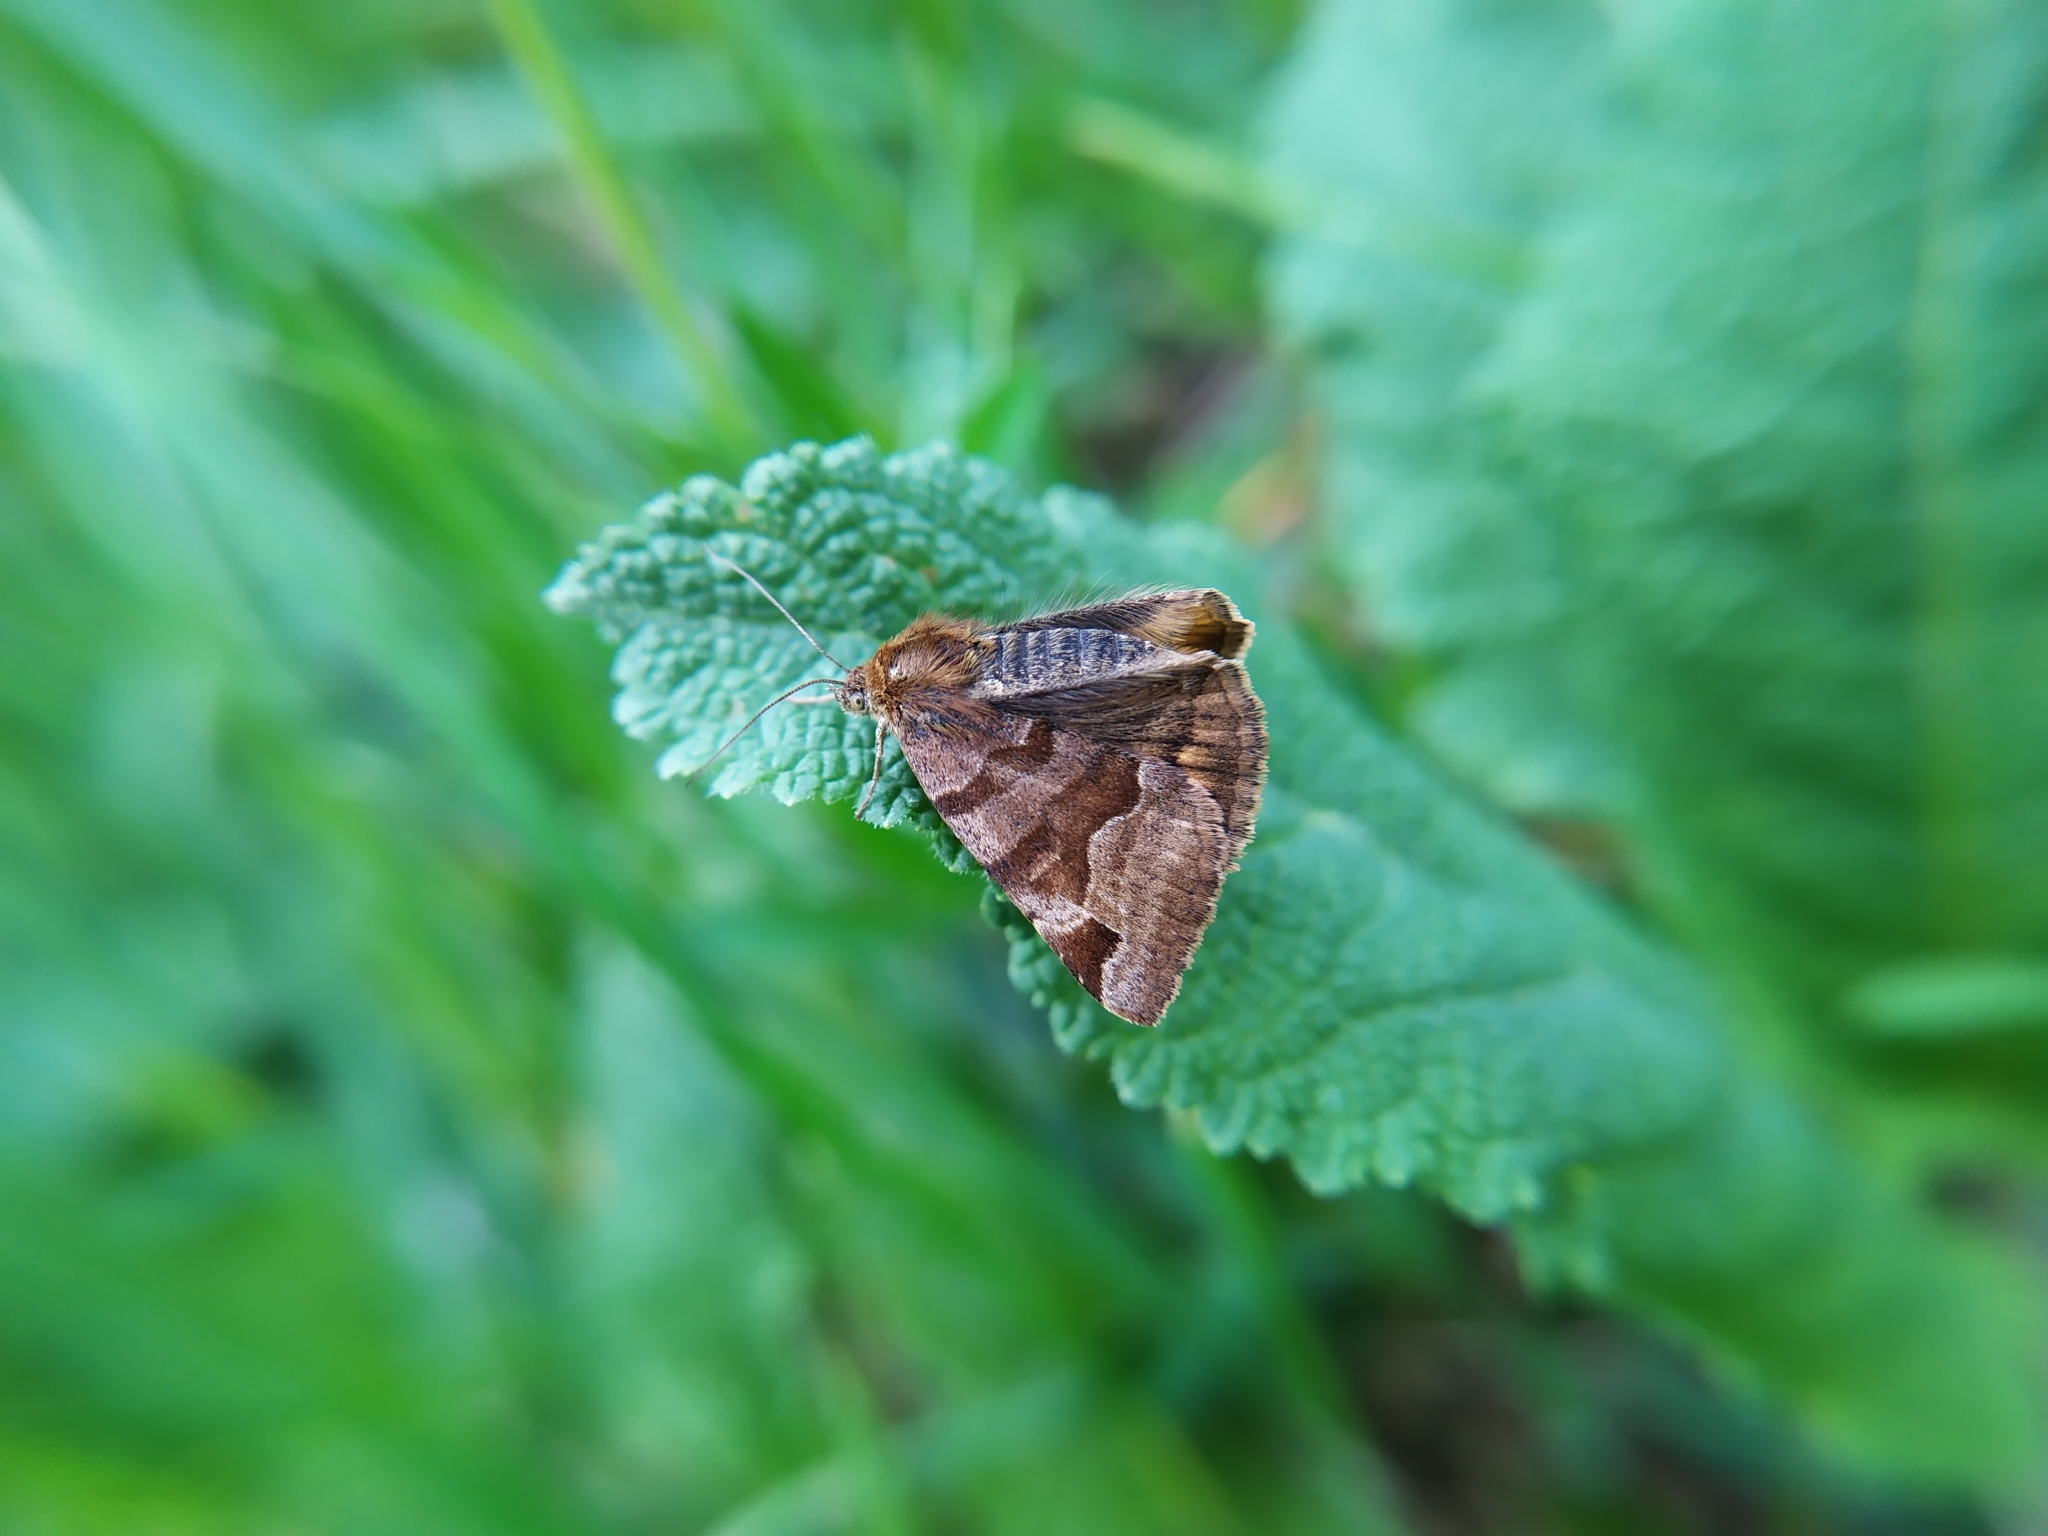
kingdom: Animalia
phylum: Arthropoda
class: Insecta
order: Lepidoptera
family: Erebidae
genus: Euclidia
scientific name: Euclidia glyphica
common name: Burnet companion
